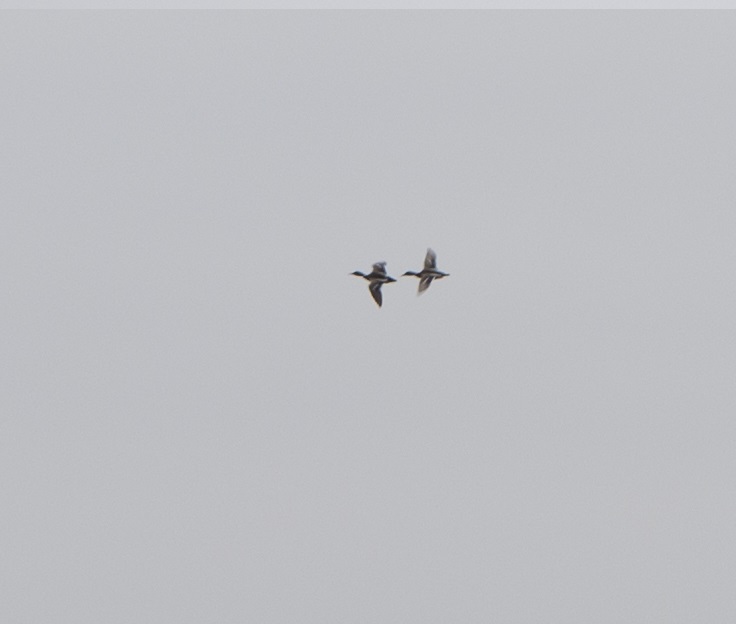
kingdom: Animalia
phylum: Chordata
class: Aves
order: Anseriformes
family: Anatidae
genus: Anas
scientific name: Anas platyrhynchos
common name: Mallard
